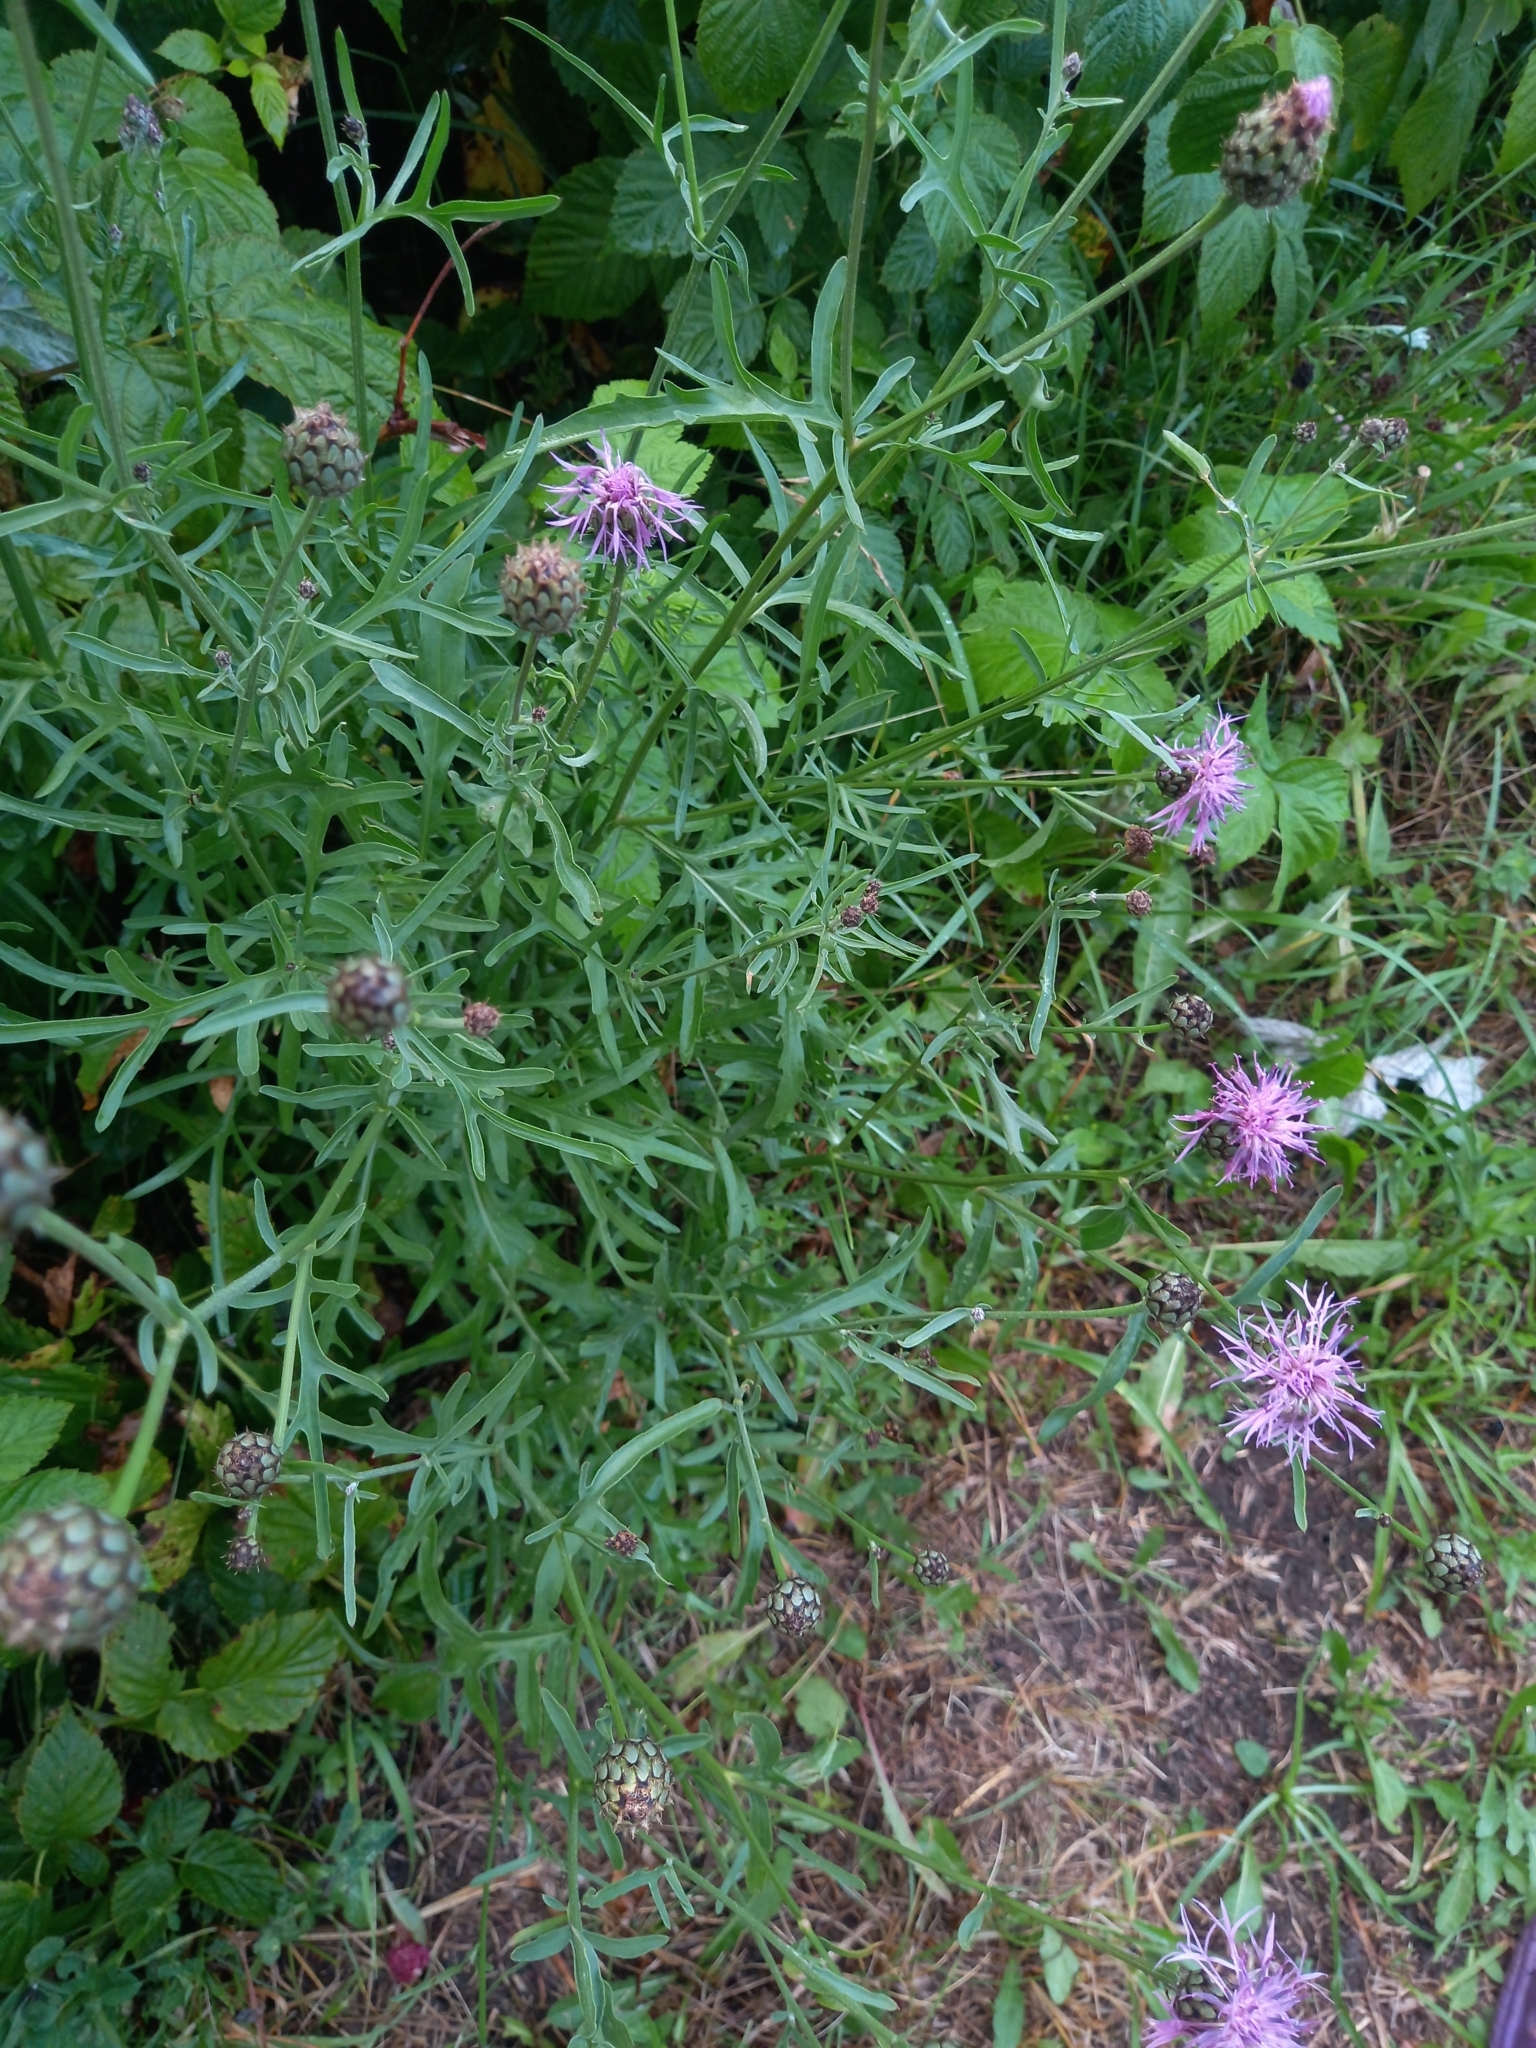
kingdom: Plantae
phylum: Tracheophyta
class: Magnoliopsida
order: Asterales
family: Asteraceae
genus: Centaurea
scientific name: Centaurea scabiosa
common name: Greater knapweed
